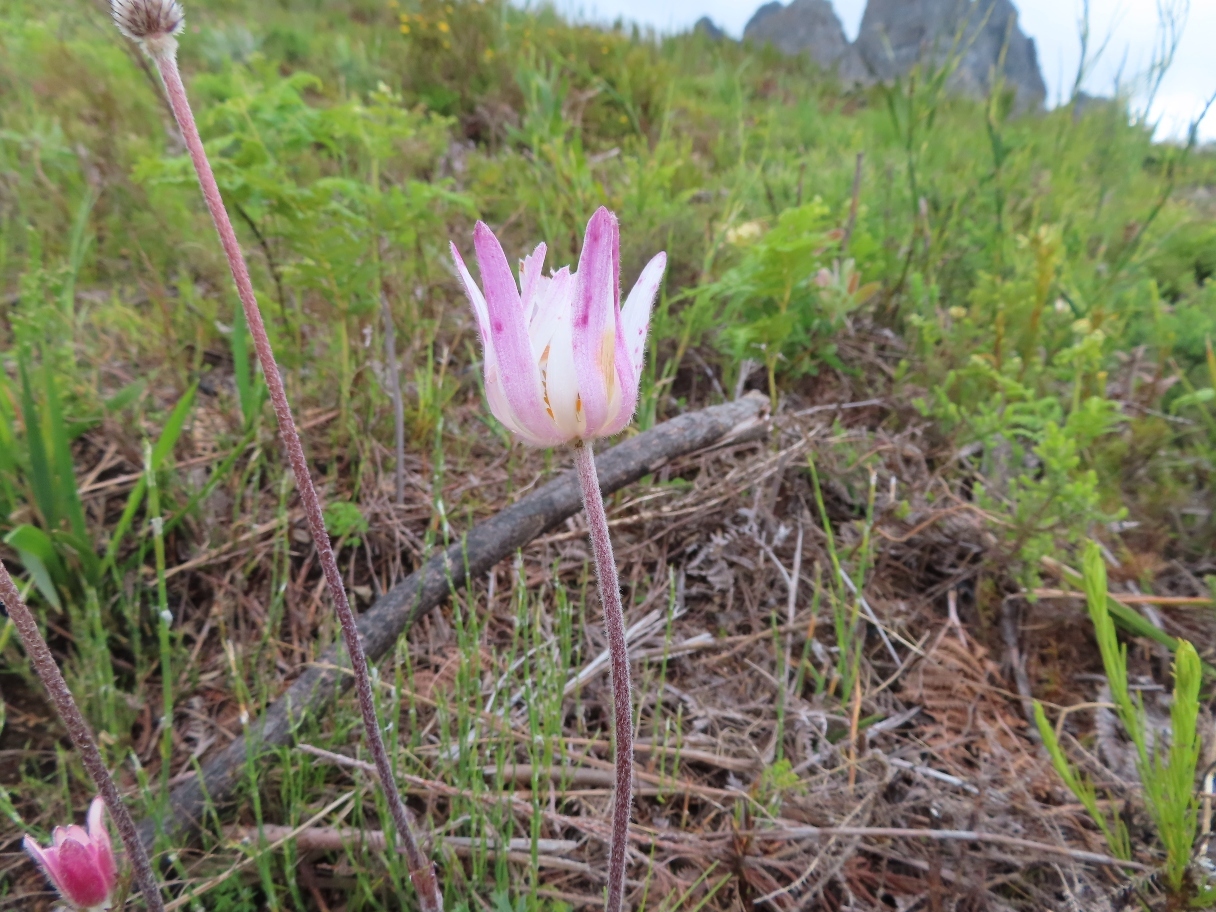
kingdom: Plantae
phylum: Tracheophyta
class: Magnoliopsida
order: Ranunculales
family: Ranunculaceae
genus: Knowltonia
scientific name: Knowltonia tenuifolia
